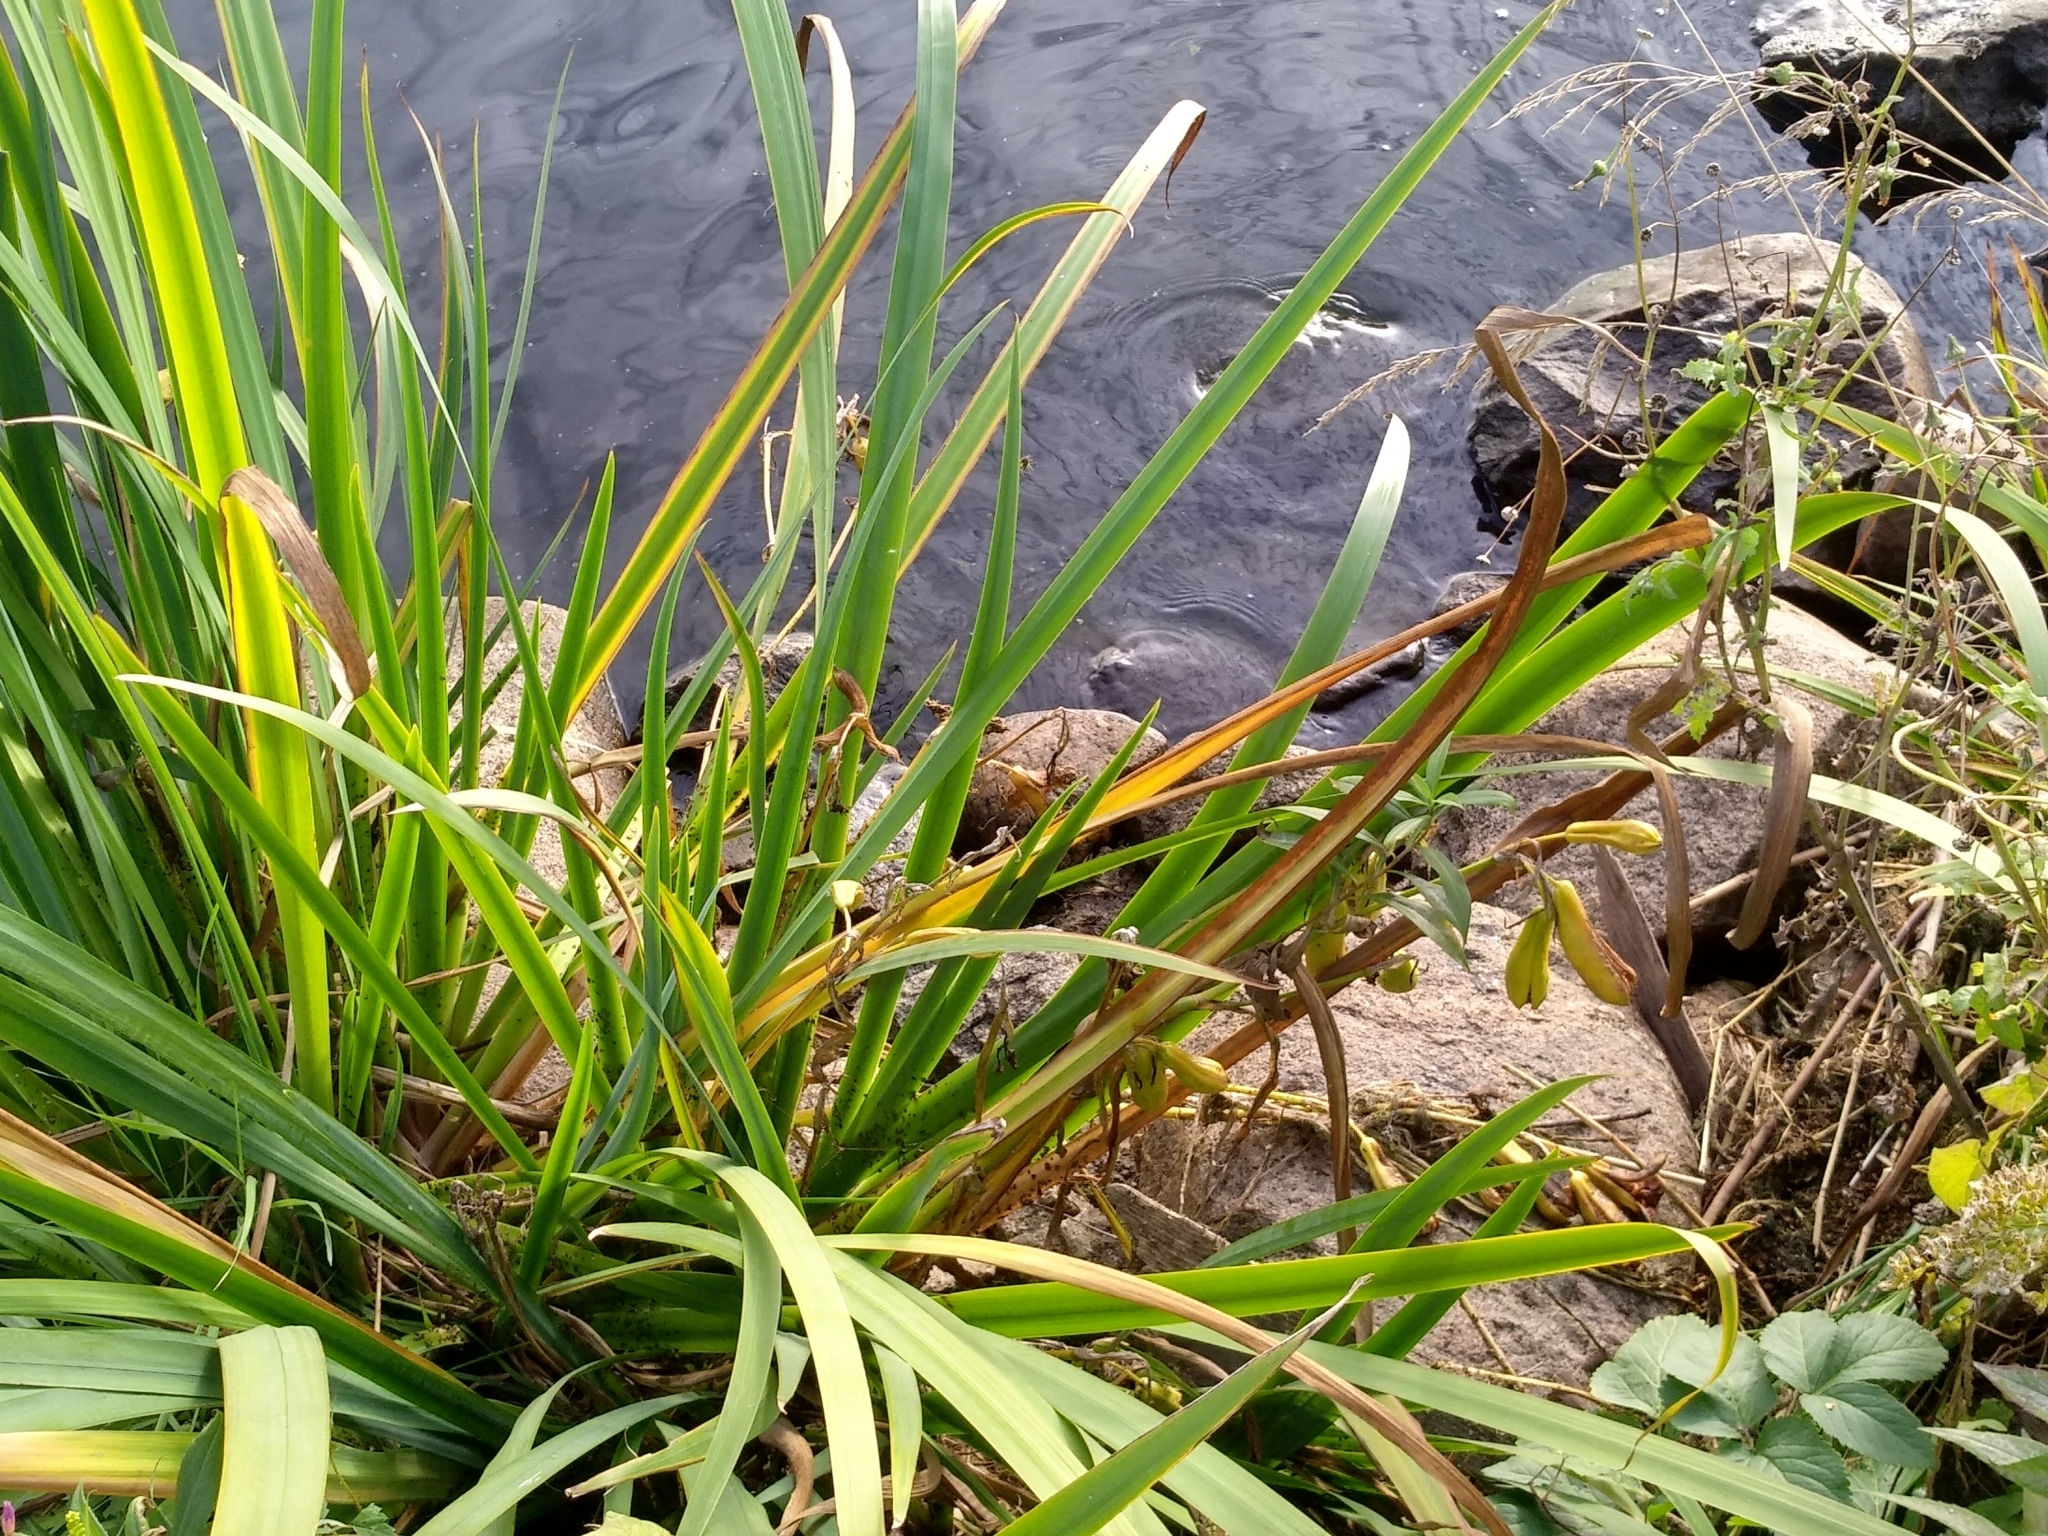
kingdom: Plantae
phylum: Tracheophyta
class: Liliopsida
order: Asparagales
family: Iridaceae
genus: Iris
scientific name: Iris pseudacorus
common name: Yellow flag
